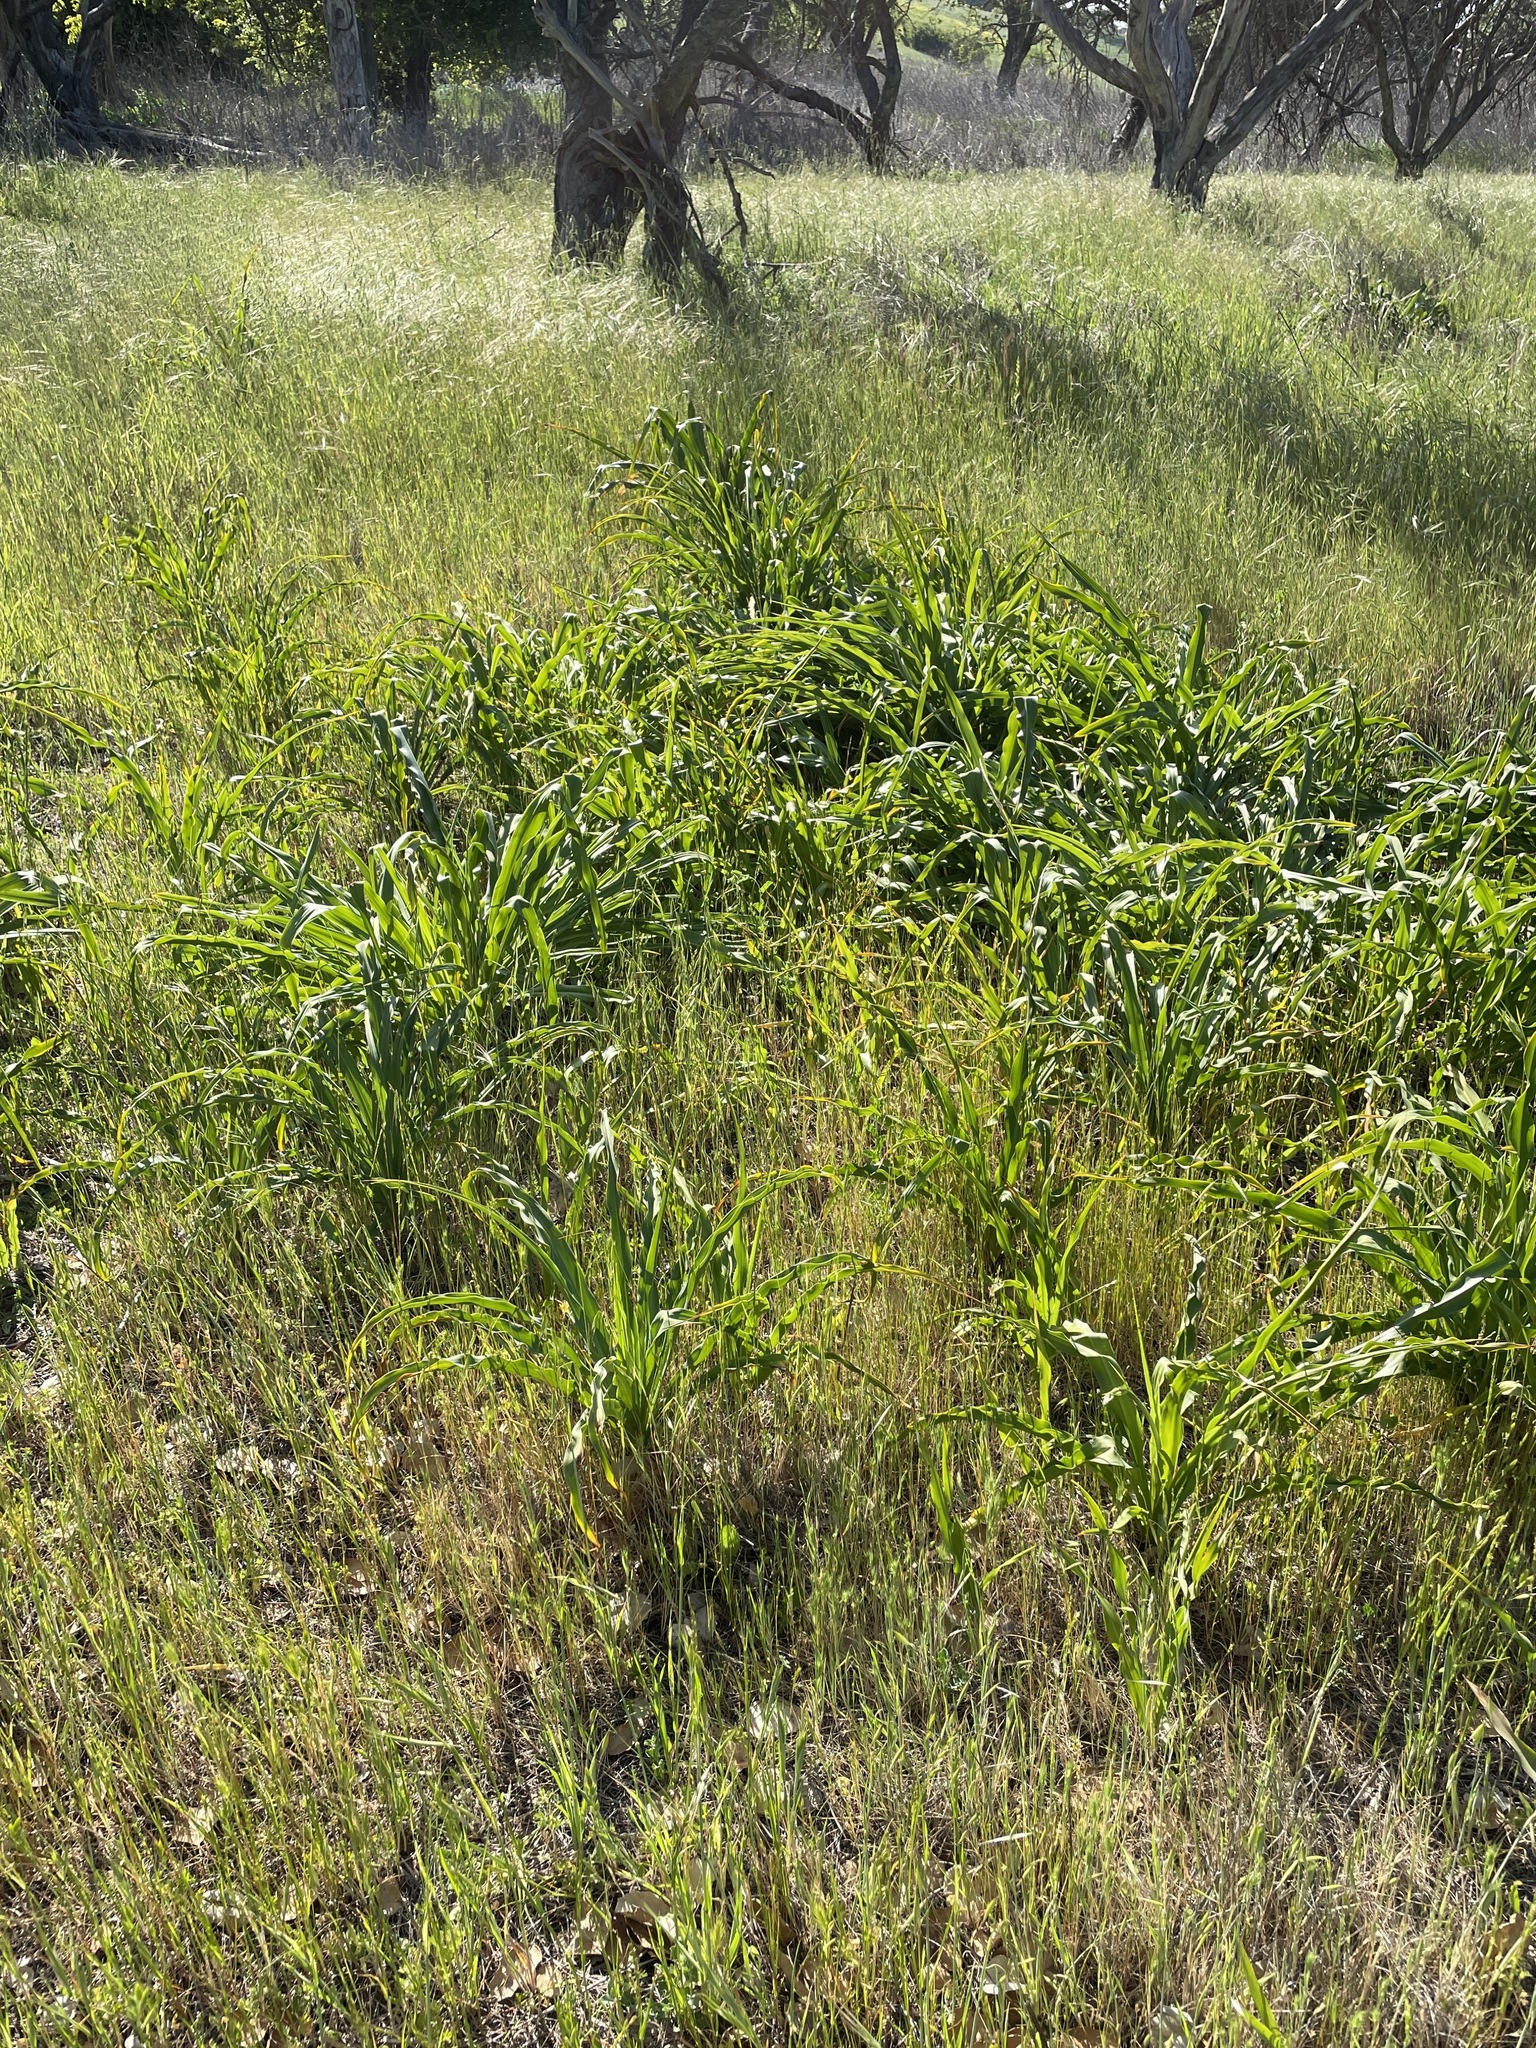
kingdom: Plantae
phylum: Tracheophyta
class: Liliopsida
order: Asparagales
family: Asparagaceae
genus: Chlorogalum
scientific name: Chlorogalum pomeridianum
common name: Amole
